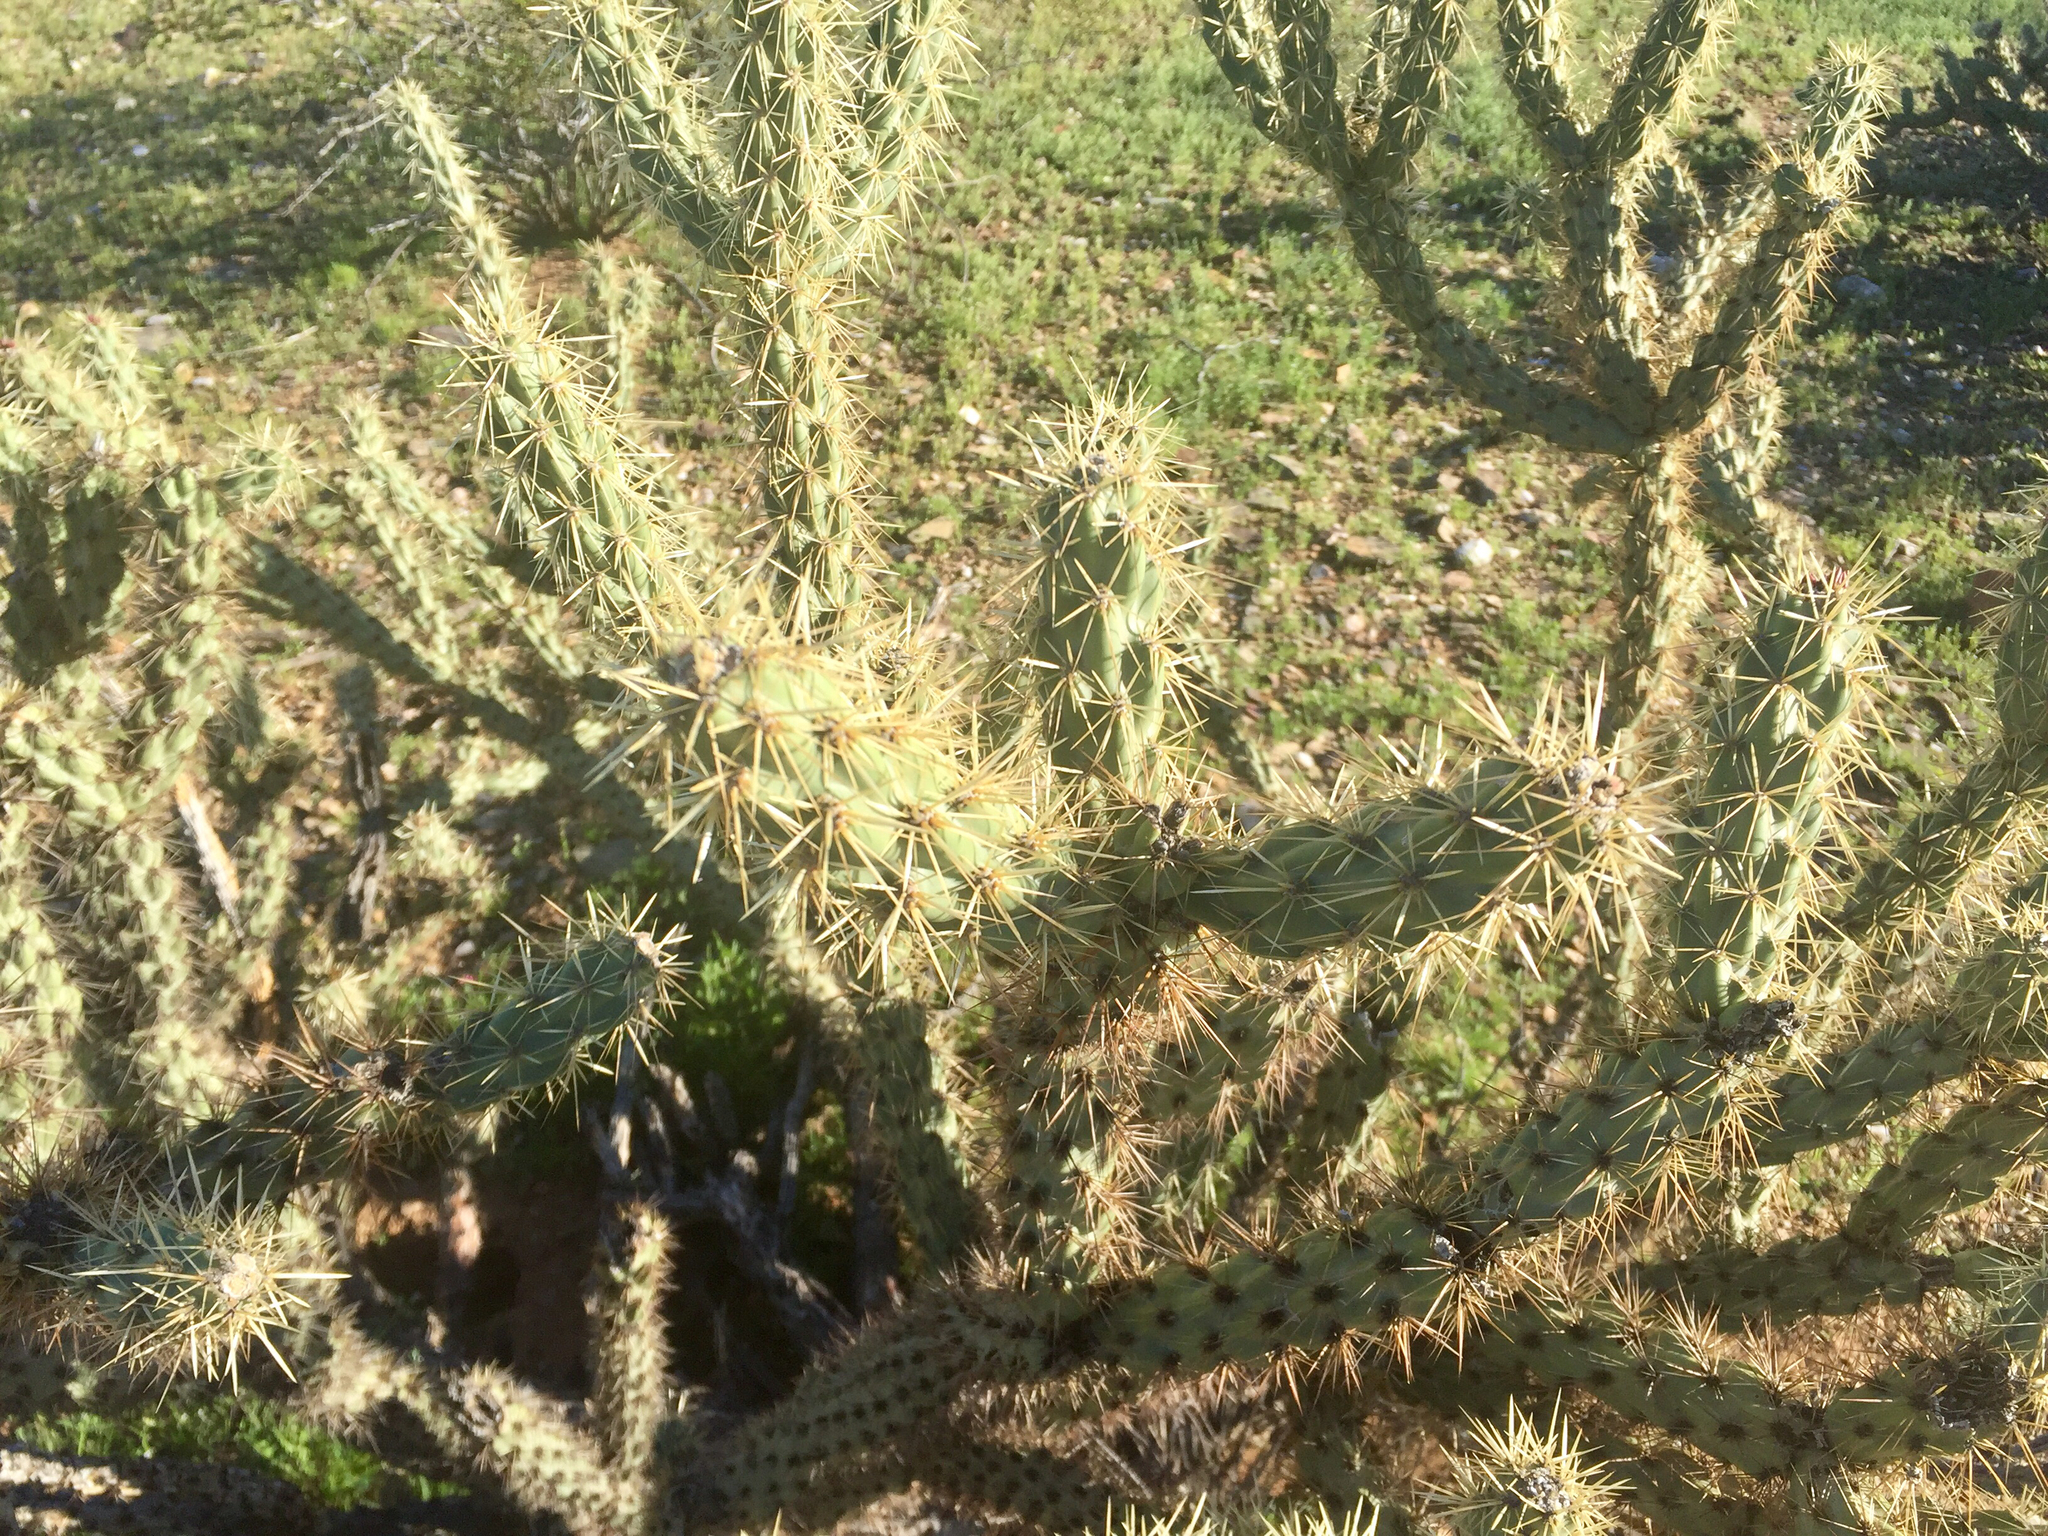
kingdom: Plantae
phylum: Tracheophyta
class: Magnoliopsida
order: Caryophyllales
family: Cactaceae
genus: Cylindropuntia
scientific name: Cylindropuntia acanthocarpa
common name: Buckhorn cholla
